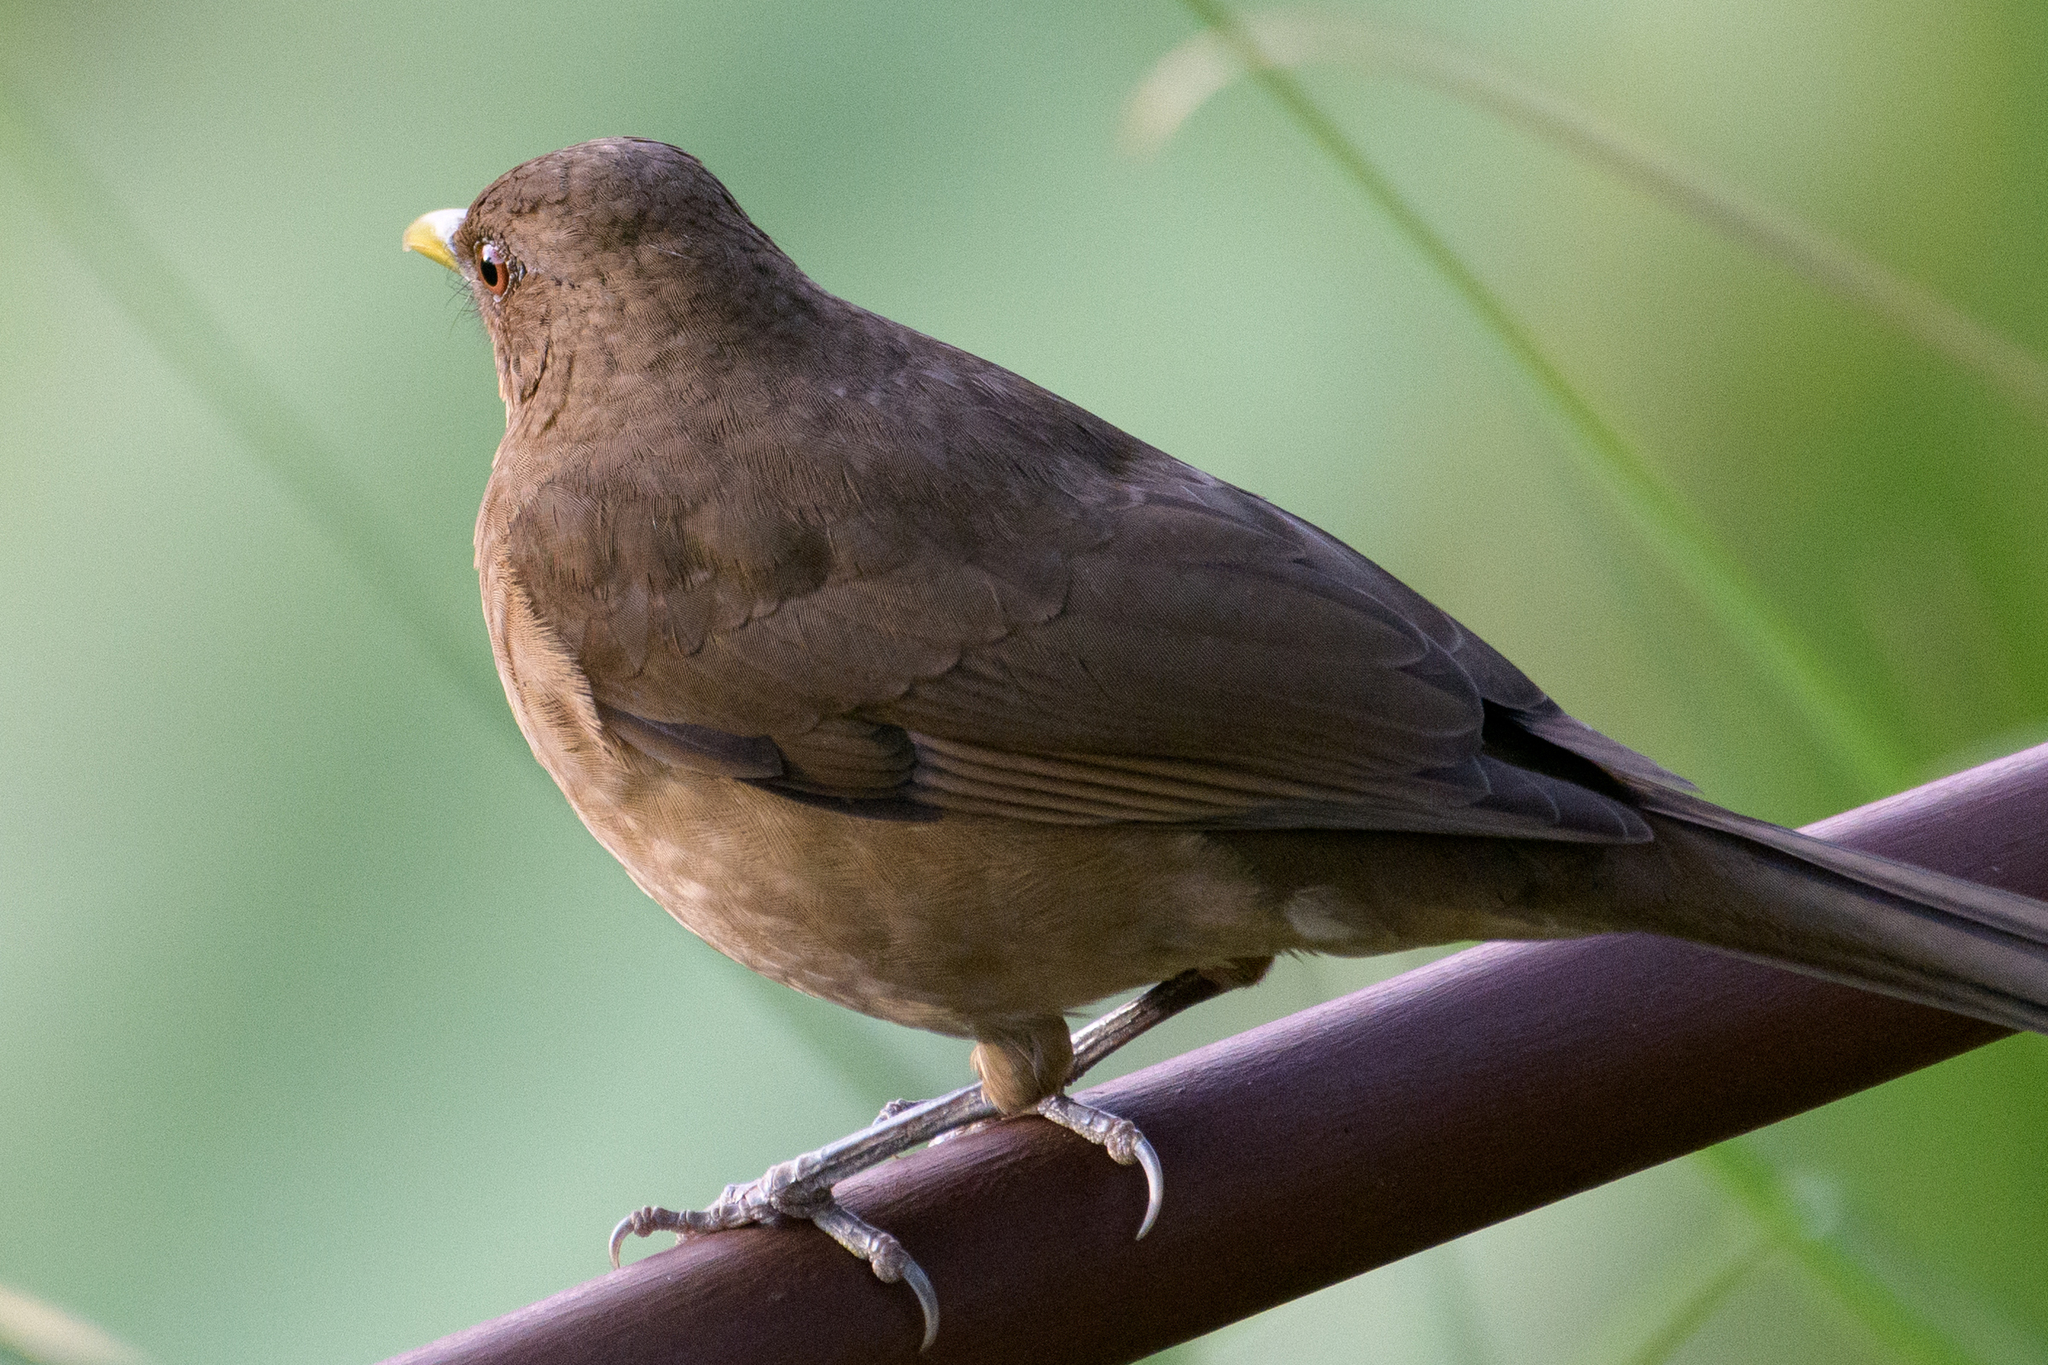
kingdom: Animalia
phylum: Chordata
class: Aves
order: Passeriformes
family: Turdidae
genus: Turdus
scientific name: Turdus grayi
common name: Clay-colored thrush
